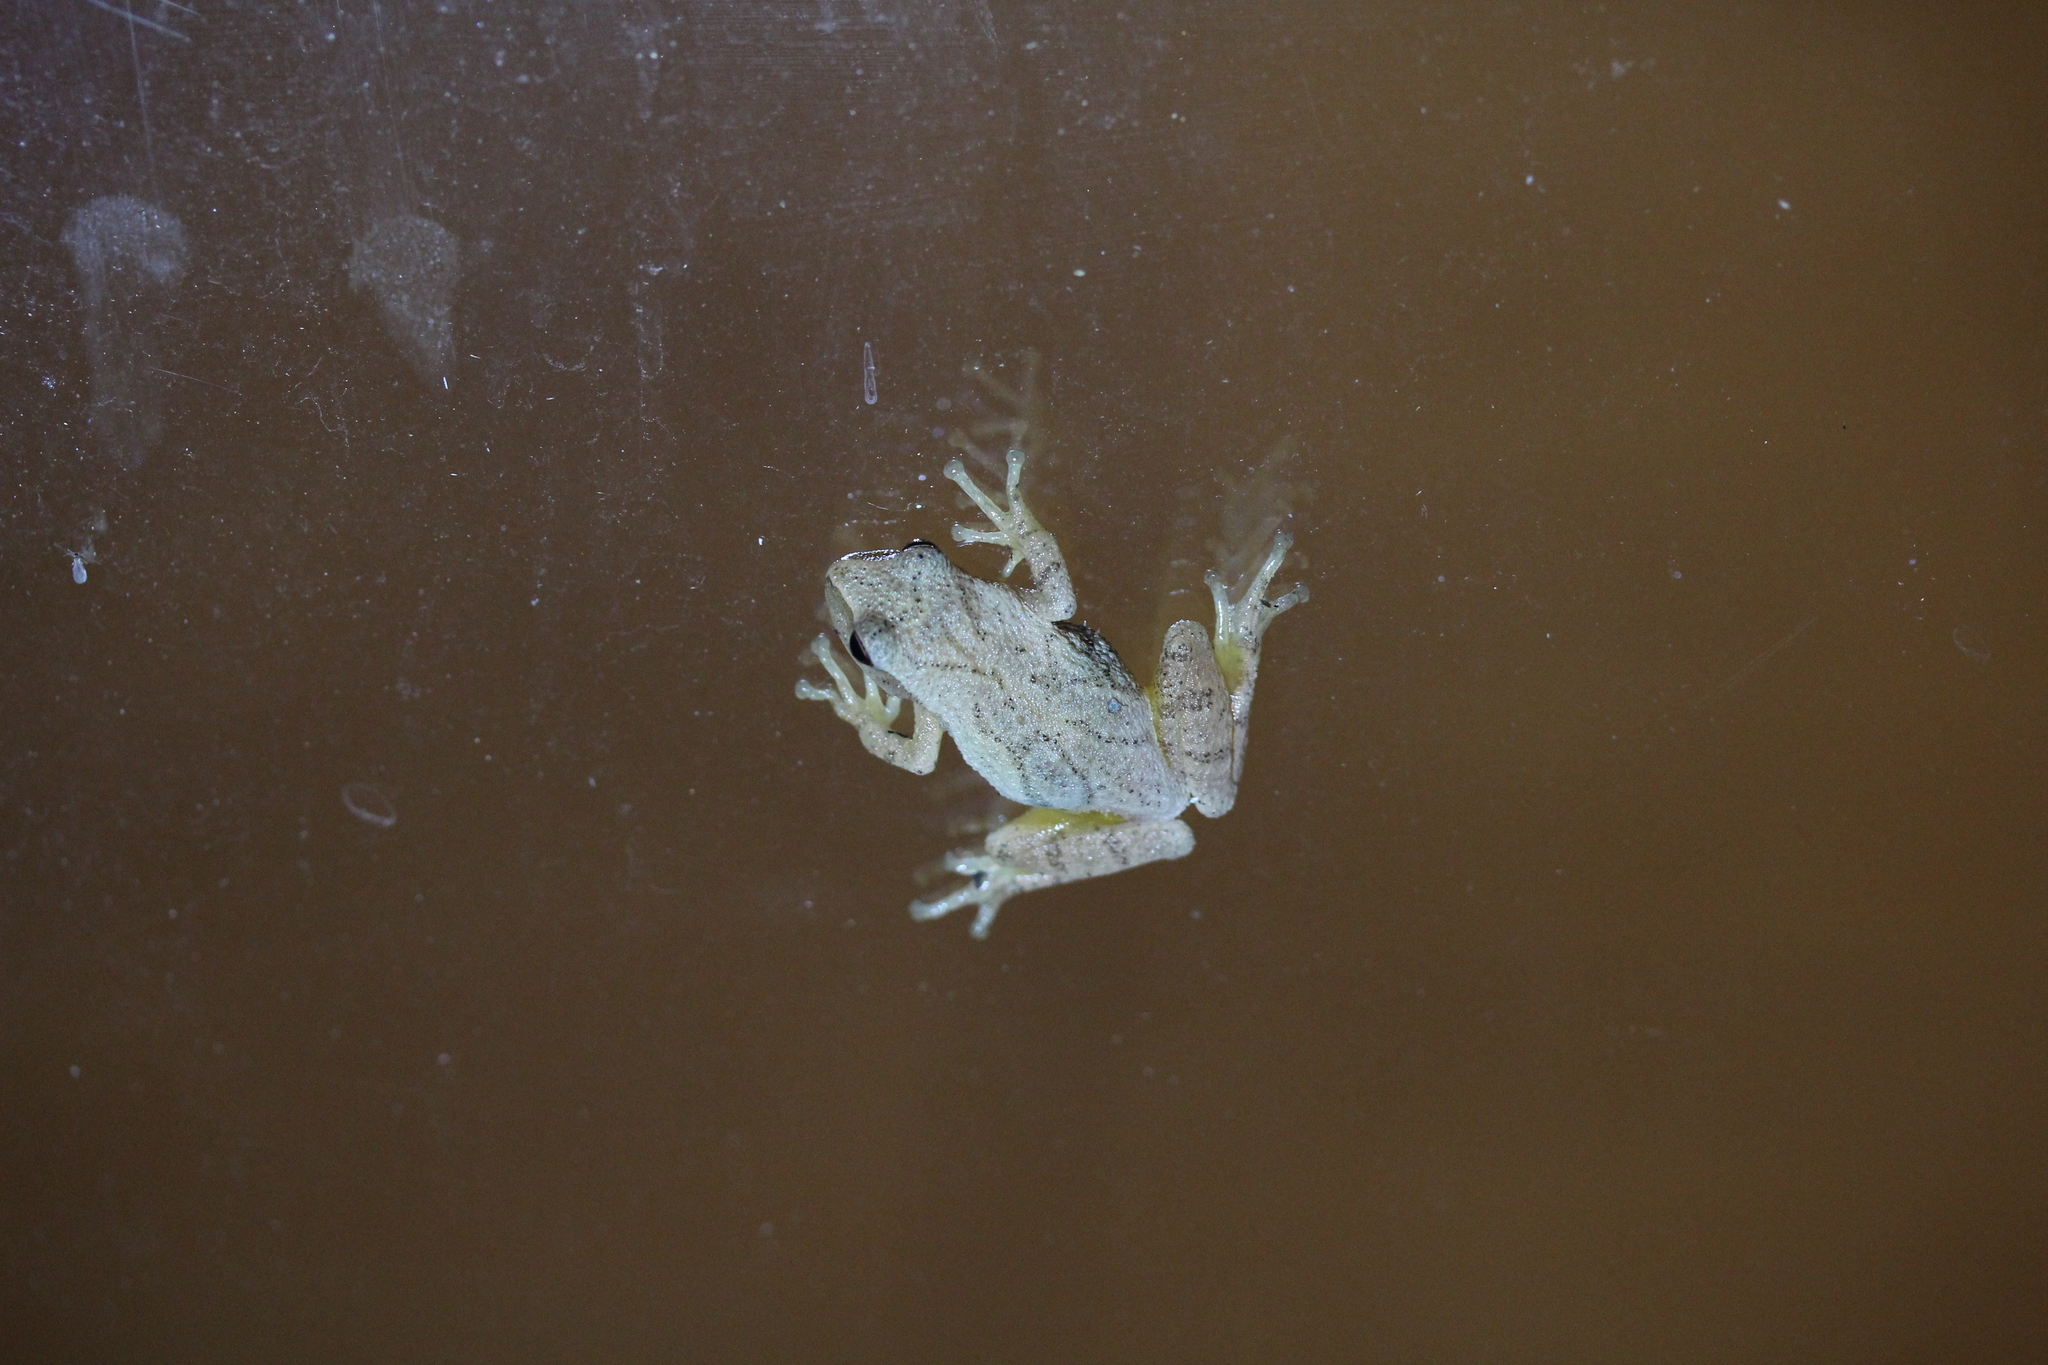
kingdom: Animalia
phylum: Chordata
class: Amphibia
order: Anura
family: Hylidae
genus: Pseudacris
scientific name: Pseudacris crucifer
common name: Spring peeper
